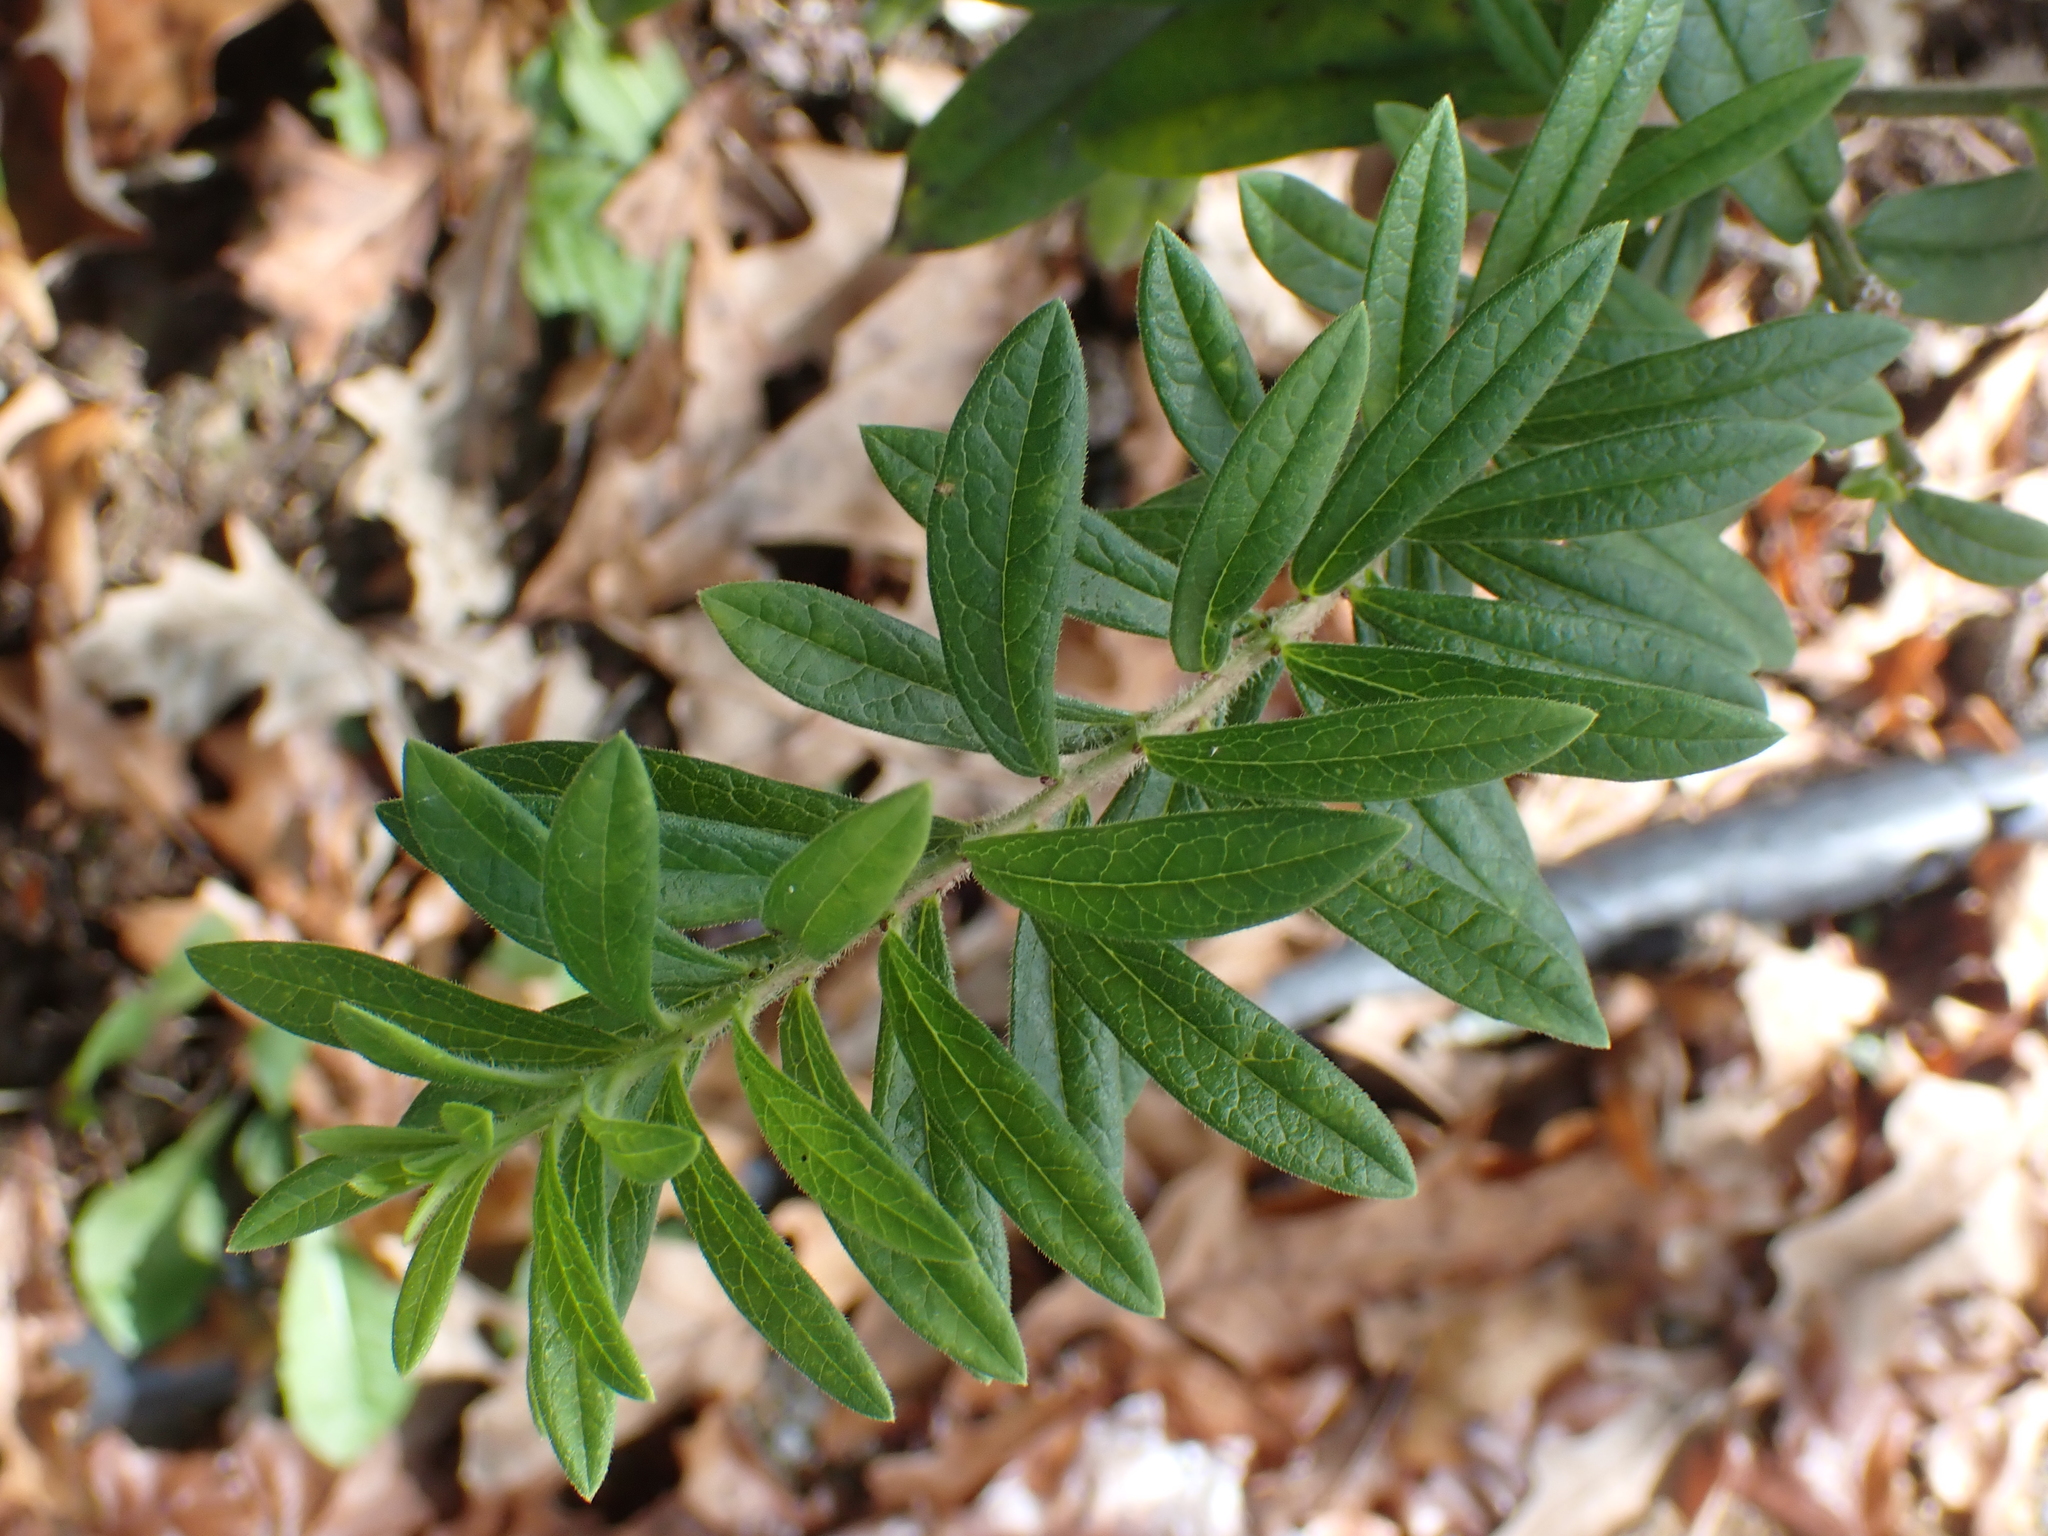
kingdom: Plantae
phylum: Tracheophyta
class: Magnoliopsida
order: Gentianales
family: Apocynaceae
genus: Asclepias
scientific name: Asclepias tuberosa
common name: Butterfly milkweed
